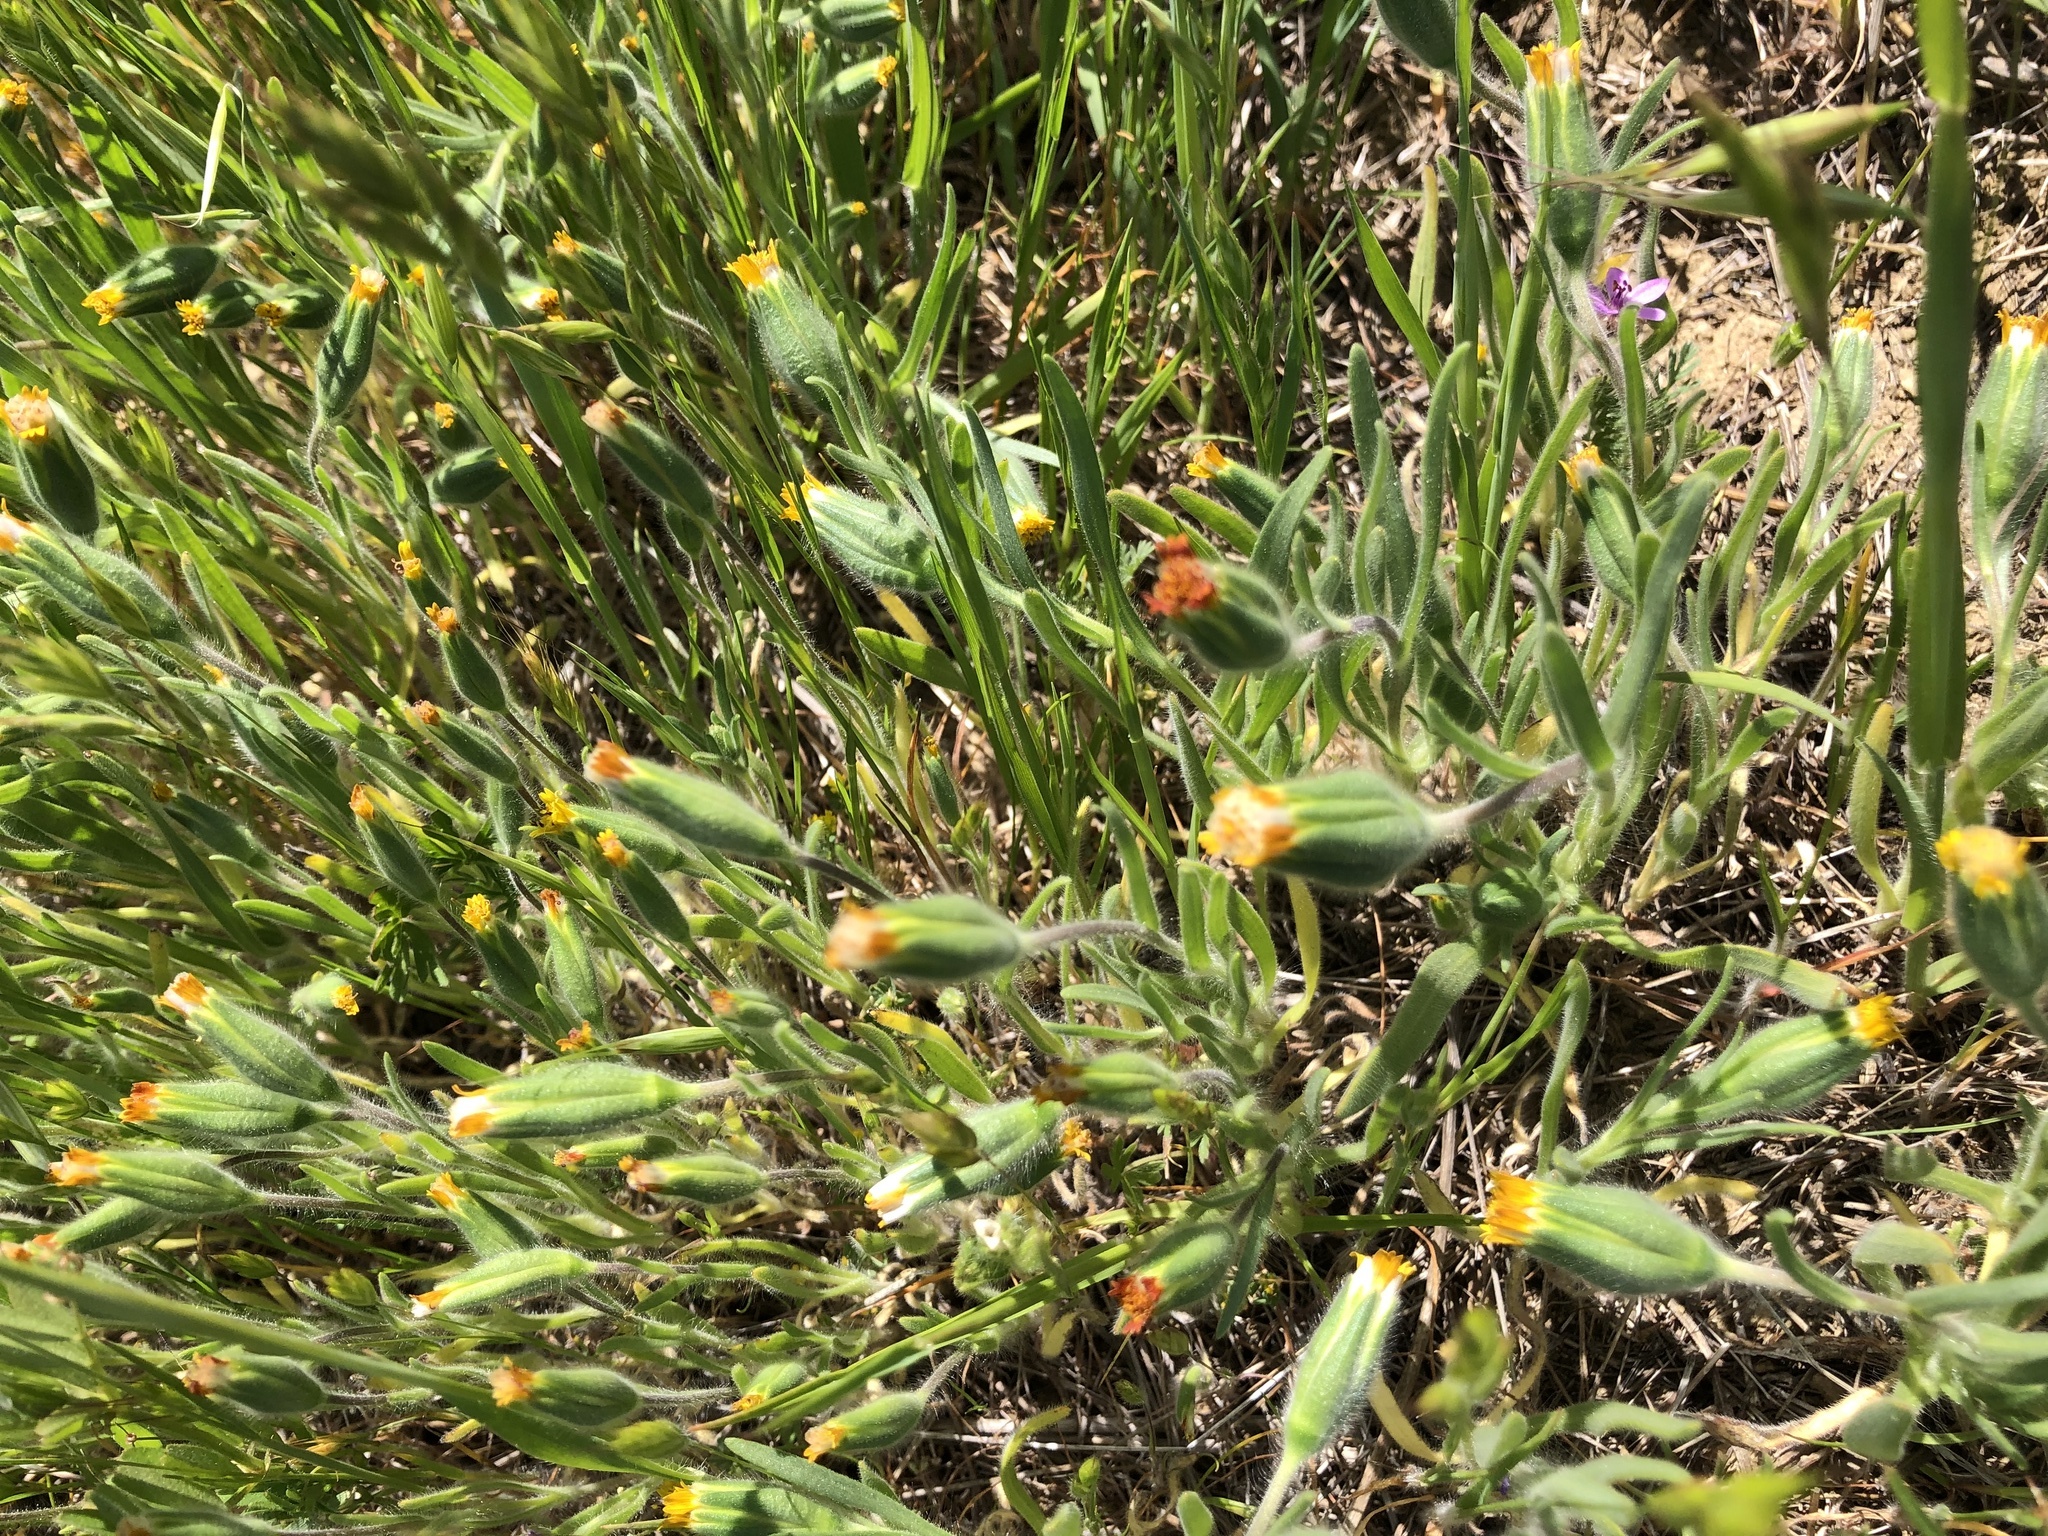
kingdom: Plantae
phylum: Tracheophyta
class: Magnoliopsida
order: Asterales
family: Asteraceae
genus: Achyrachaena
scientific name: Achyrachaena mollis
